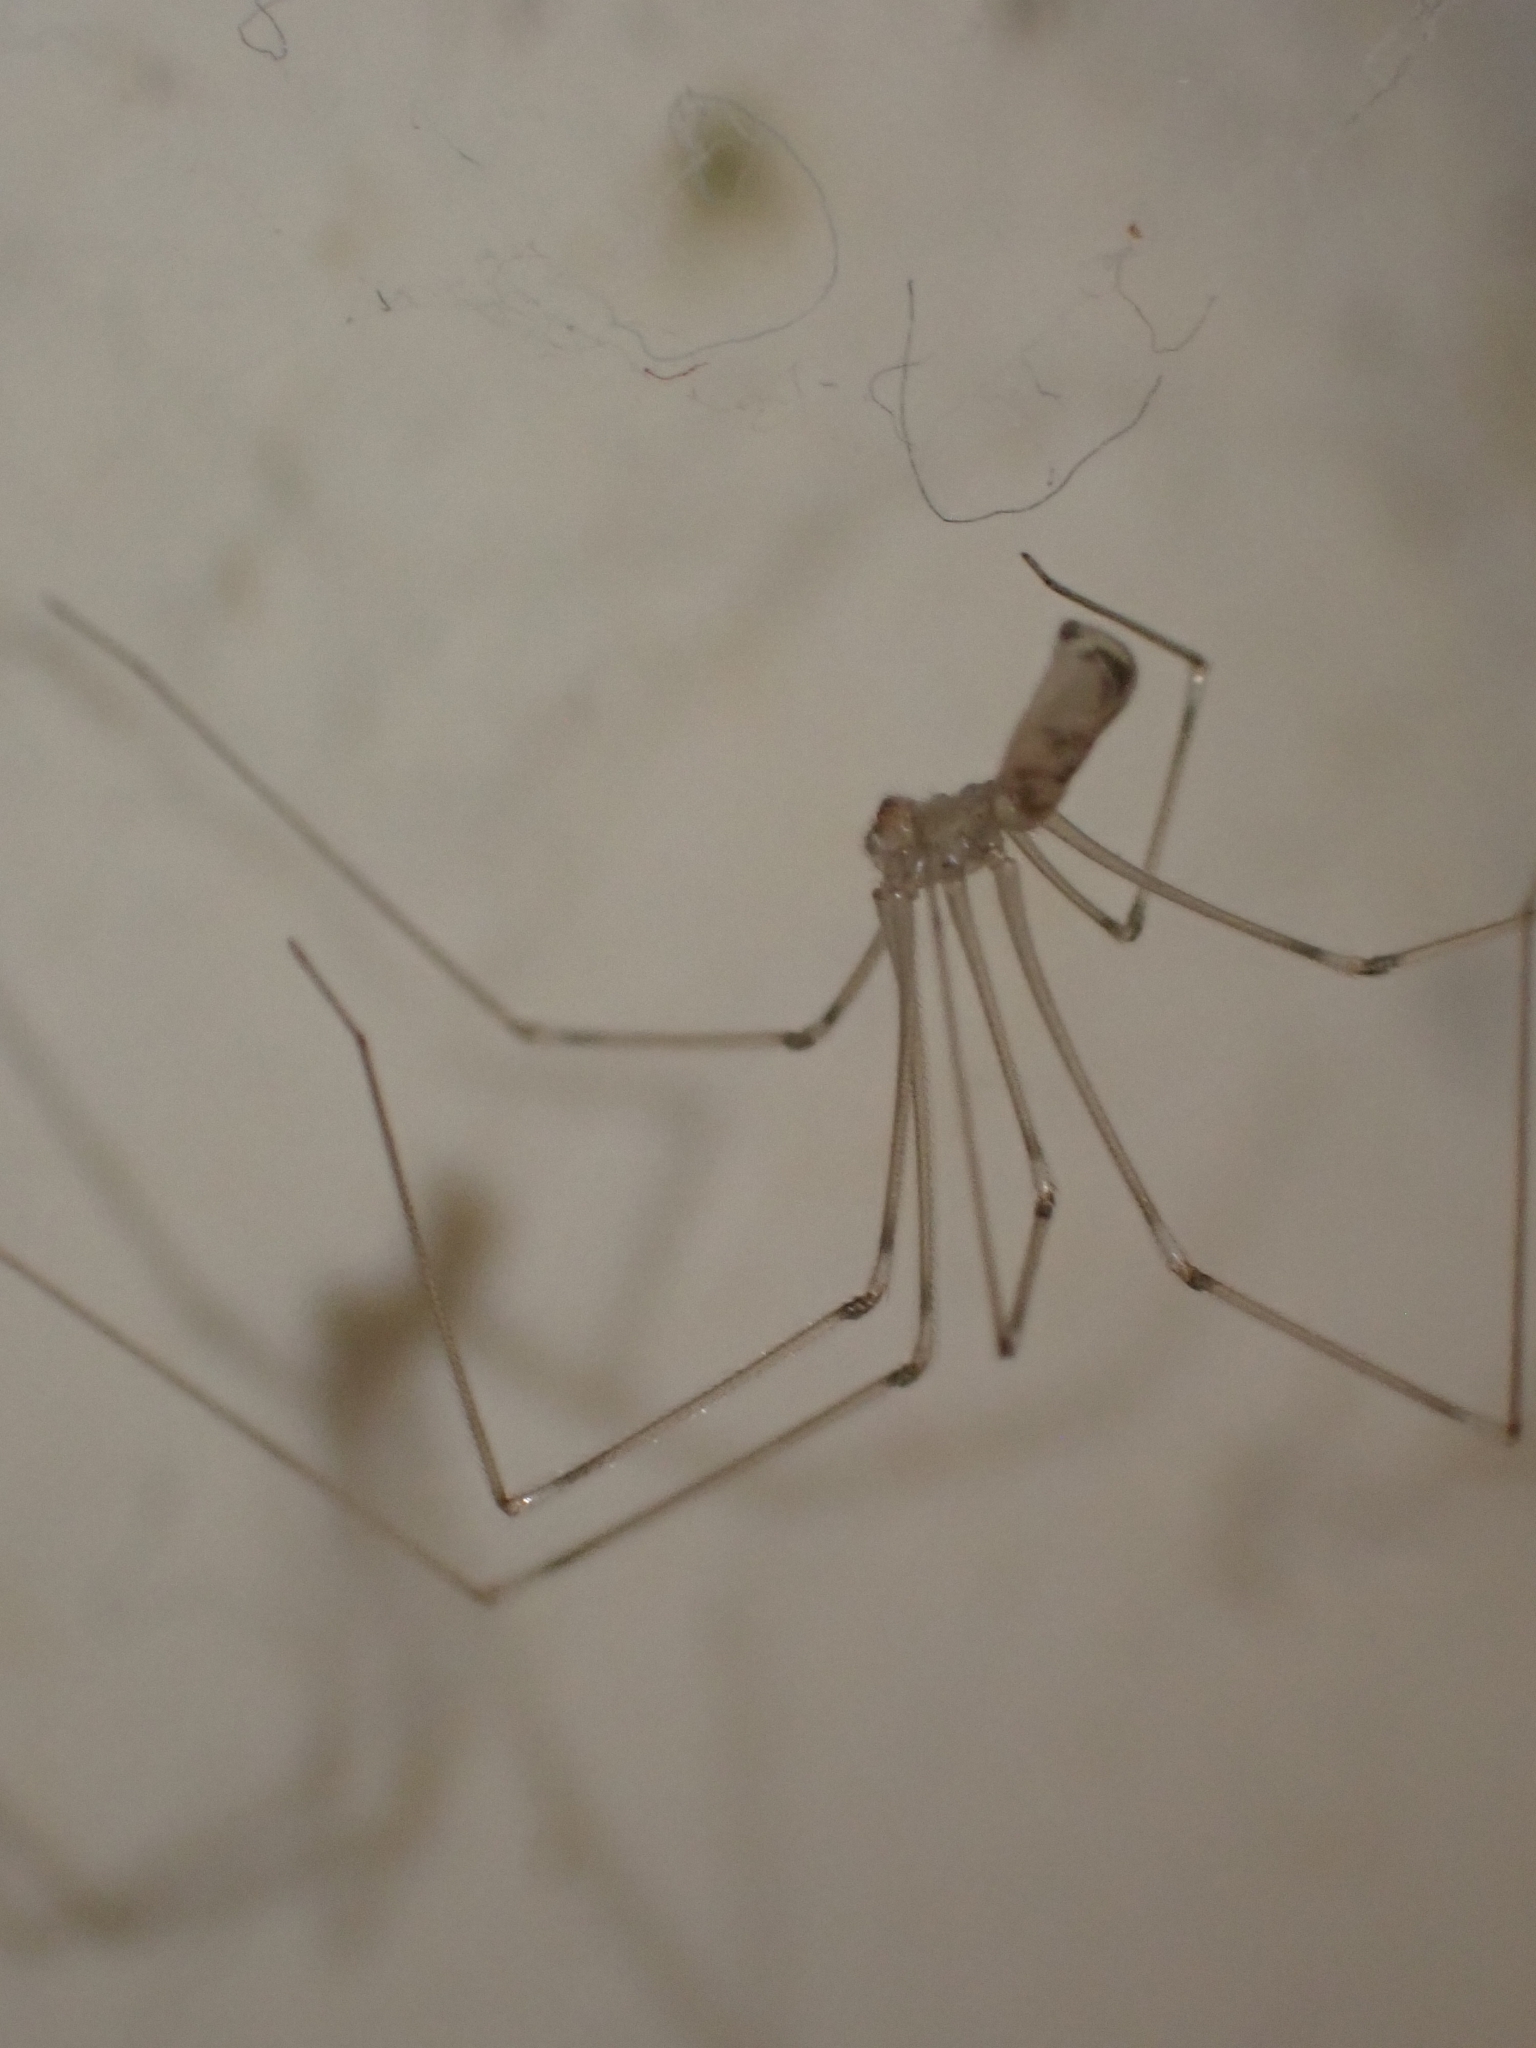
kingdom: Animalia
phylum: Arthropoda
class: Arachnida
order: Araneae
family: Pholcidae
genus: Pholcus
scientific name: Pholcus phalangioides
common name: Longbodied cellar spider
